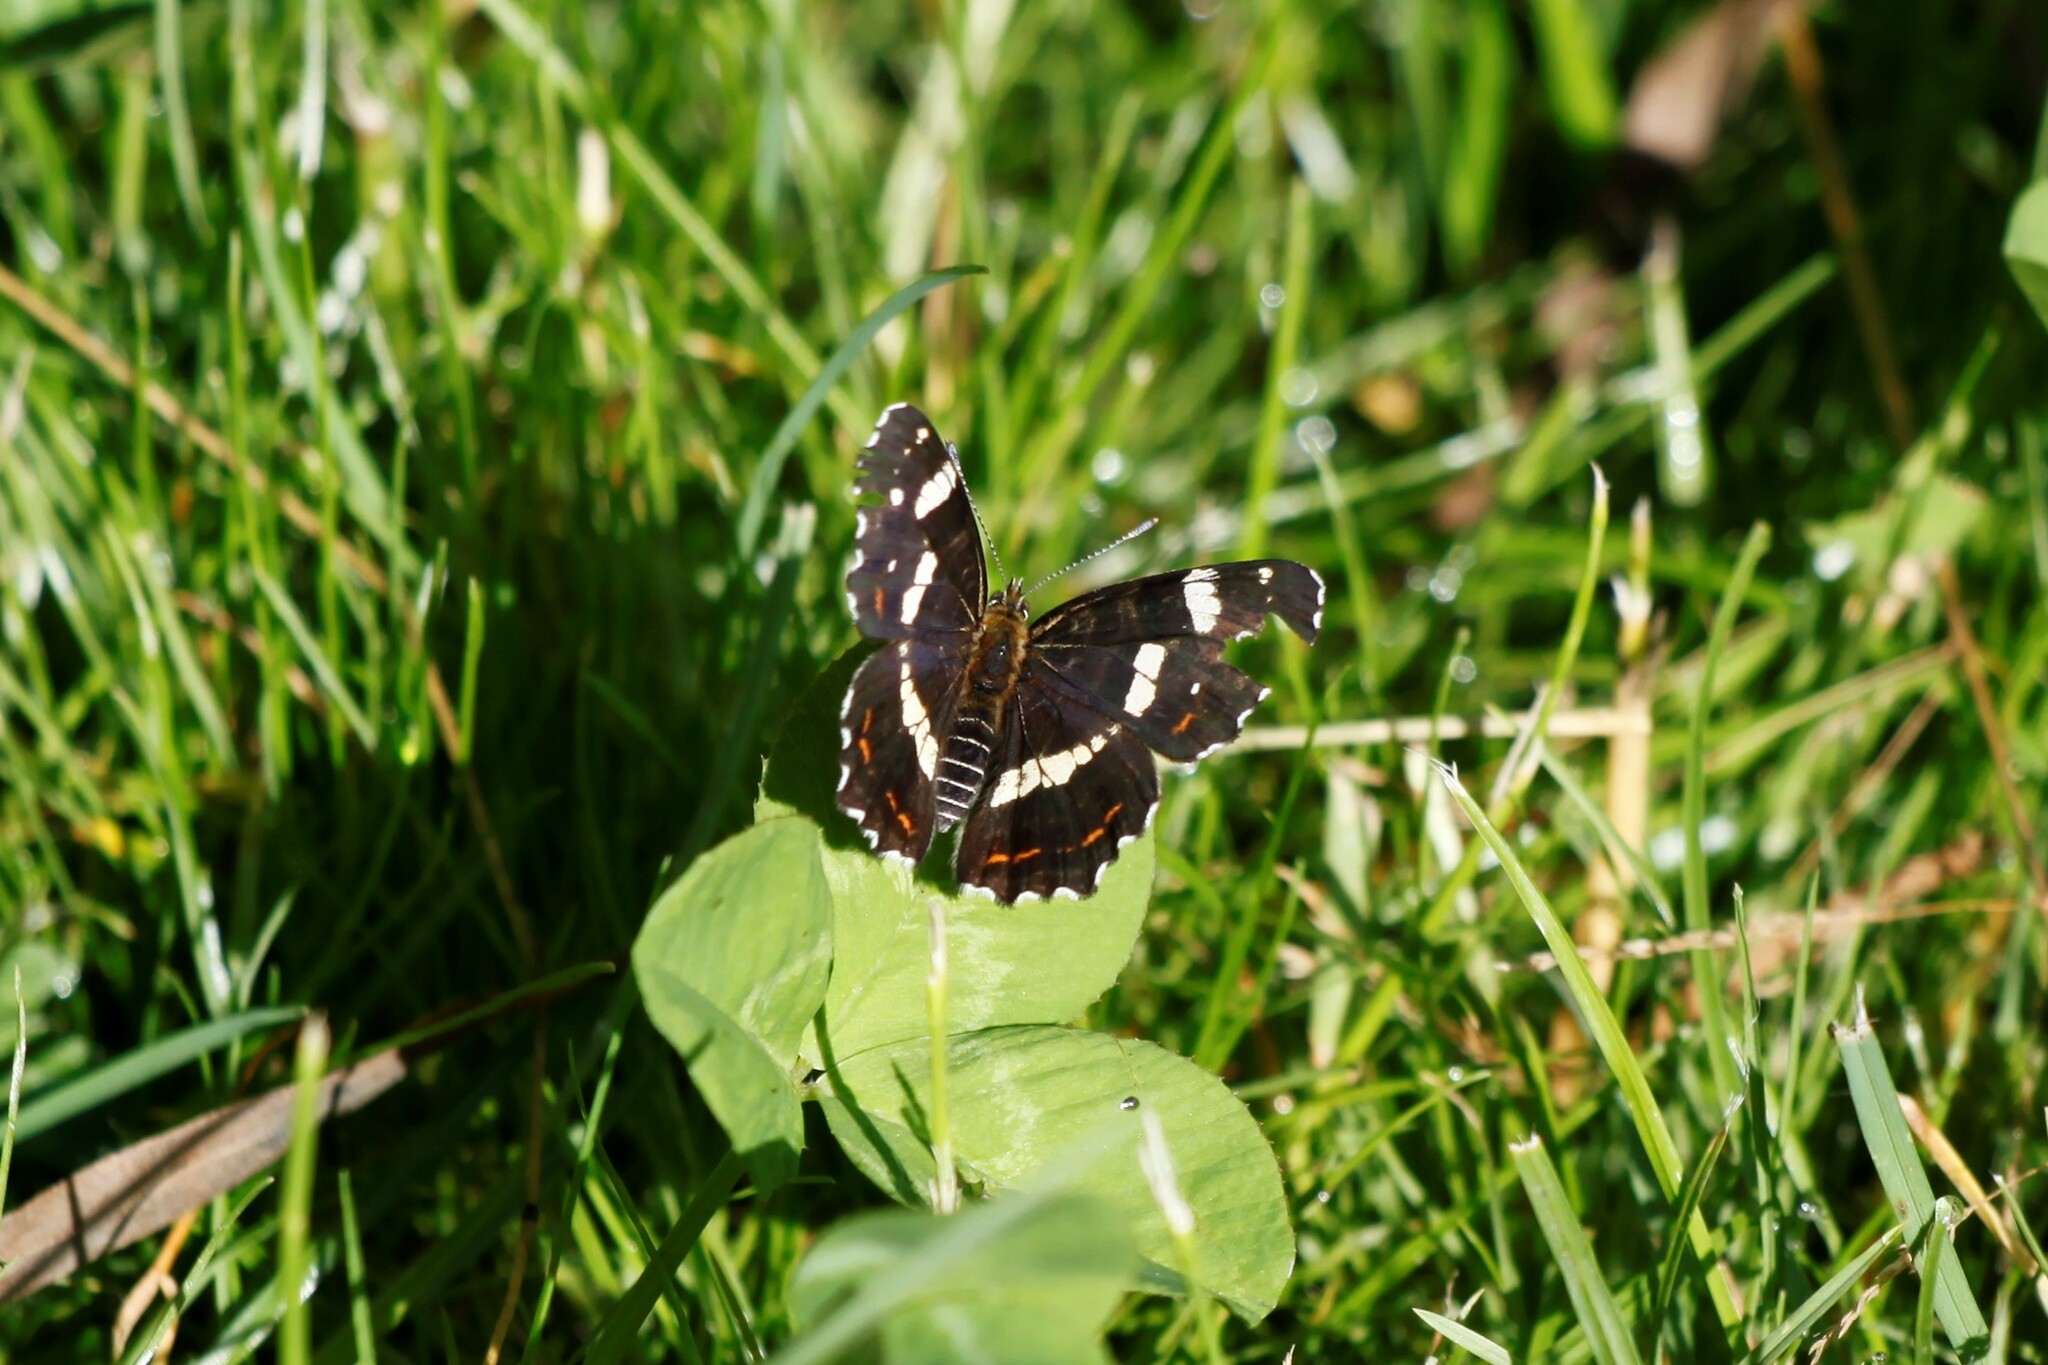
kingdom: Animalia
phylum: Arthropoda
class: Insecta
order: Lepidoptera
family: Nymphalidae
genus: Araschnia
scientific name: Araschnia levana
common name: Map butterfly
